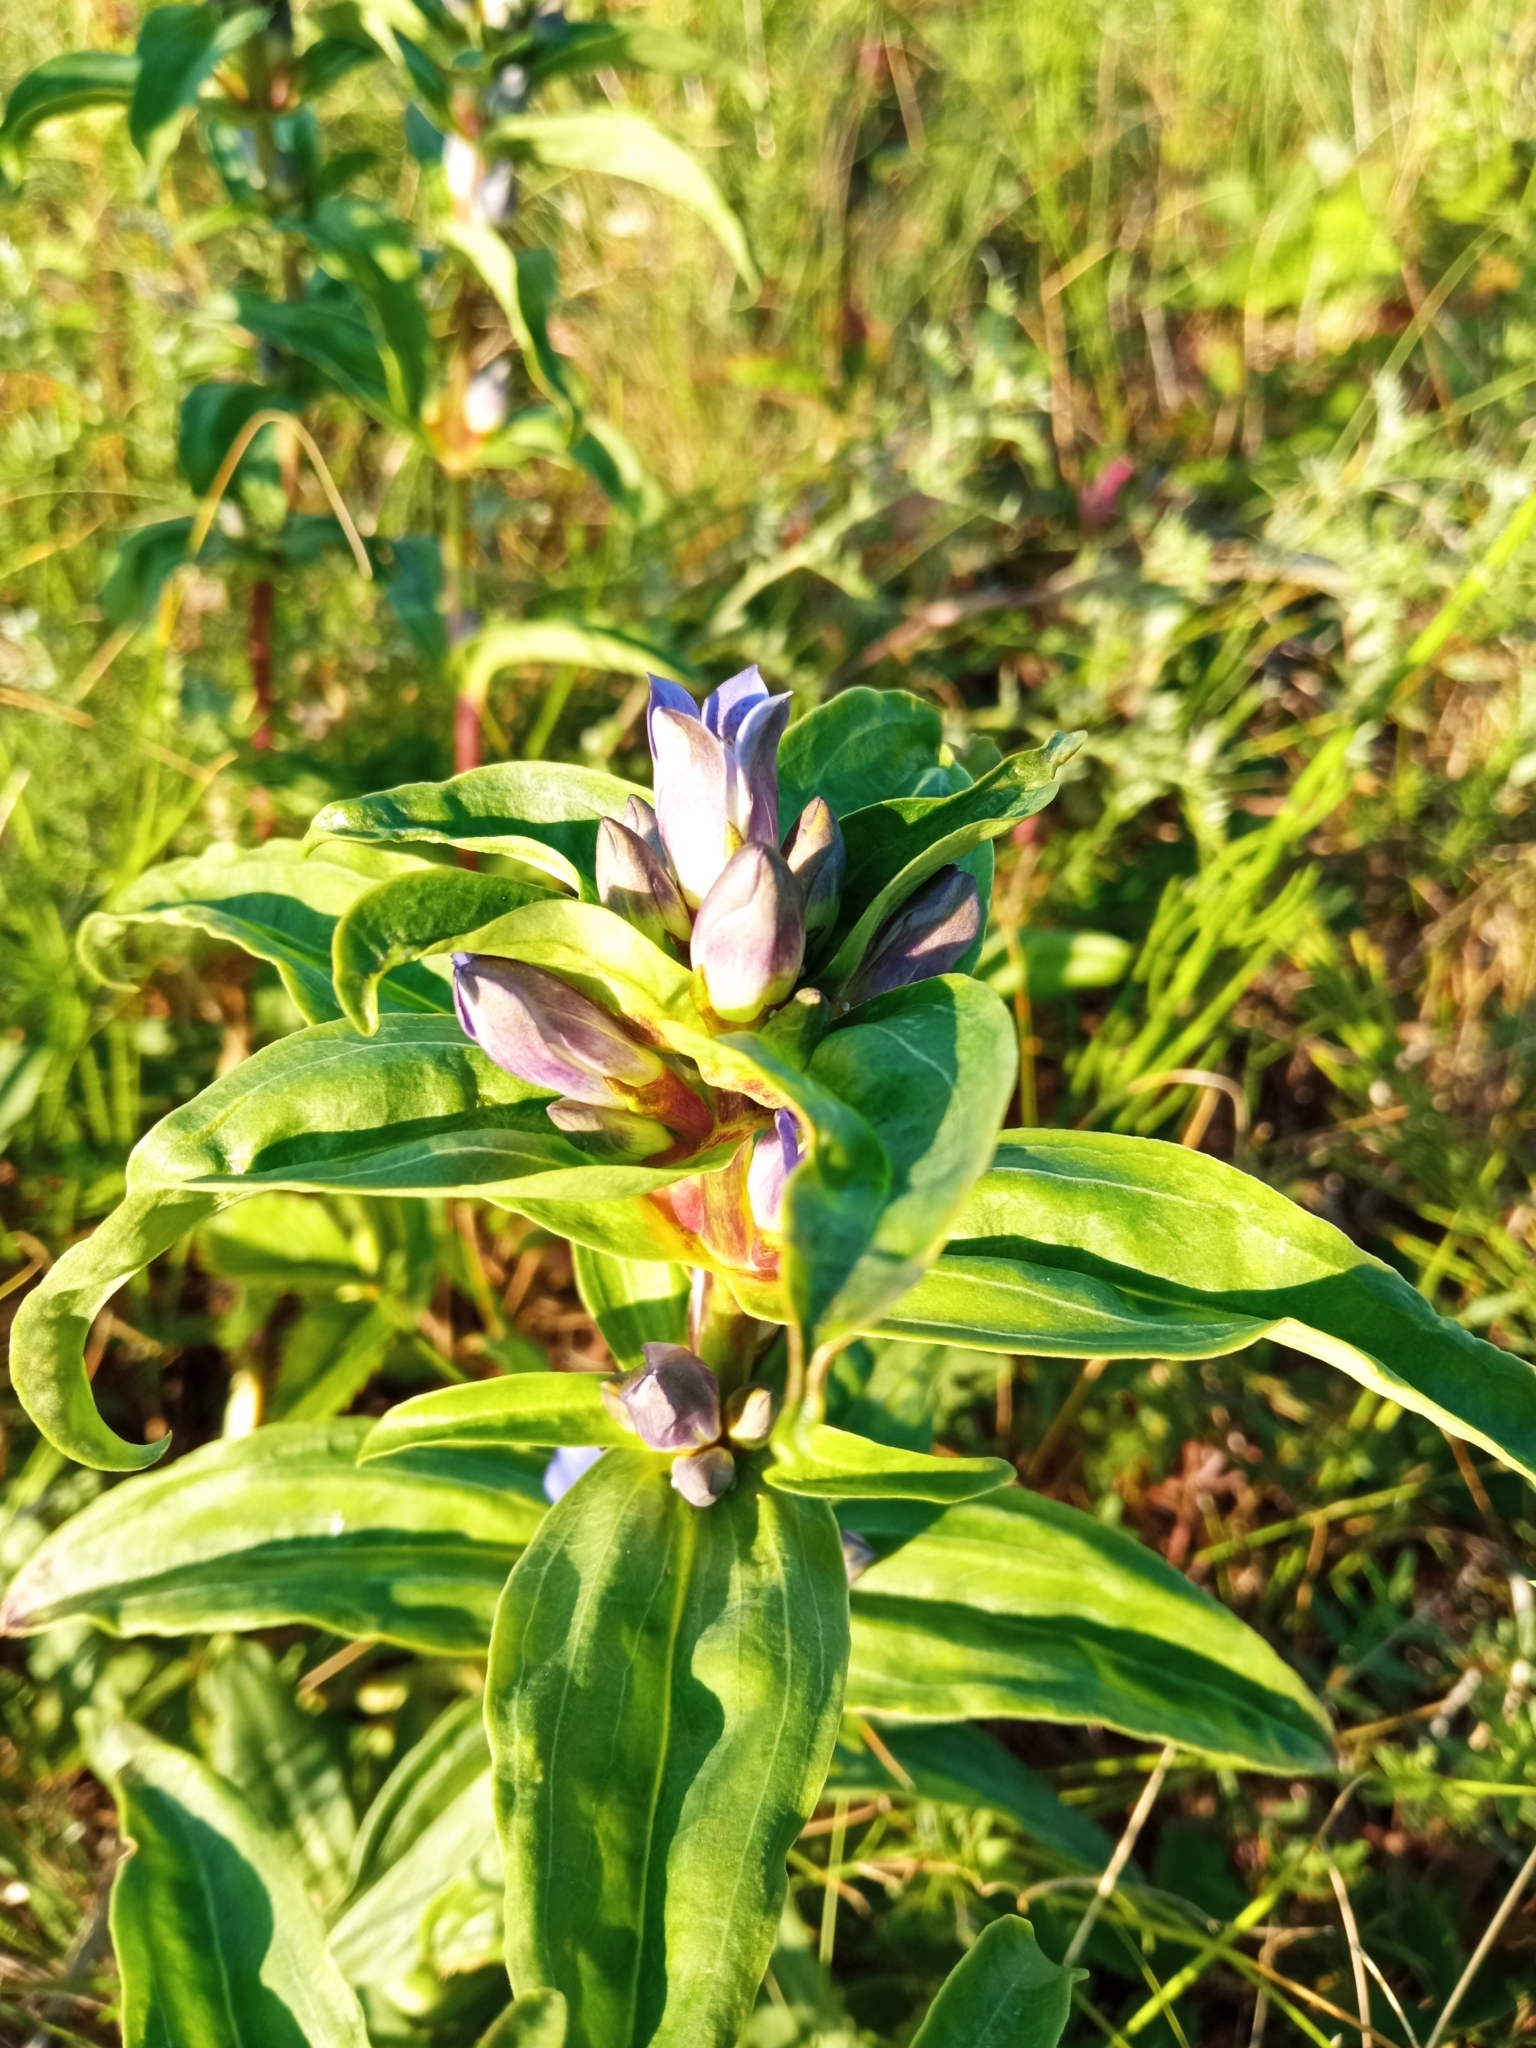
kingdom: Plantae
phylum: Tracheophyta
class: Magnoliopsida
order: Gentianales
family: Gentianaceae
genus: Gentiana
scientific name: Gentiana cruciata
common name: Cross gentian
